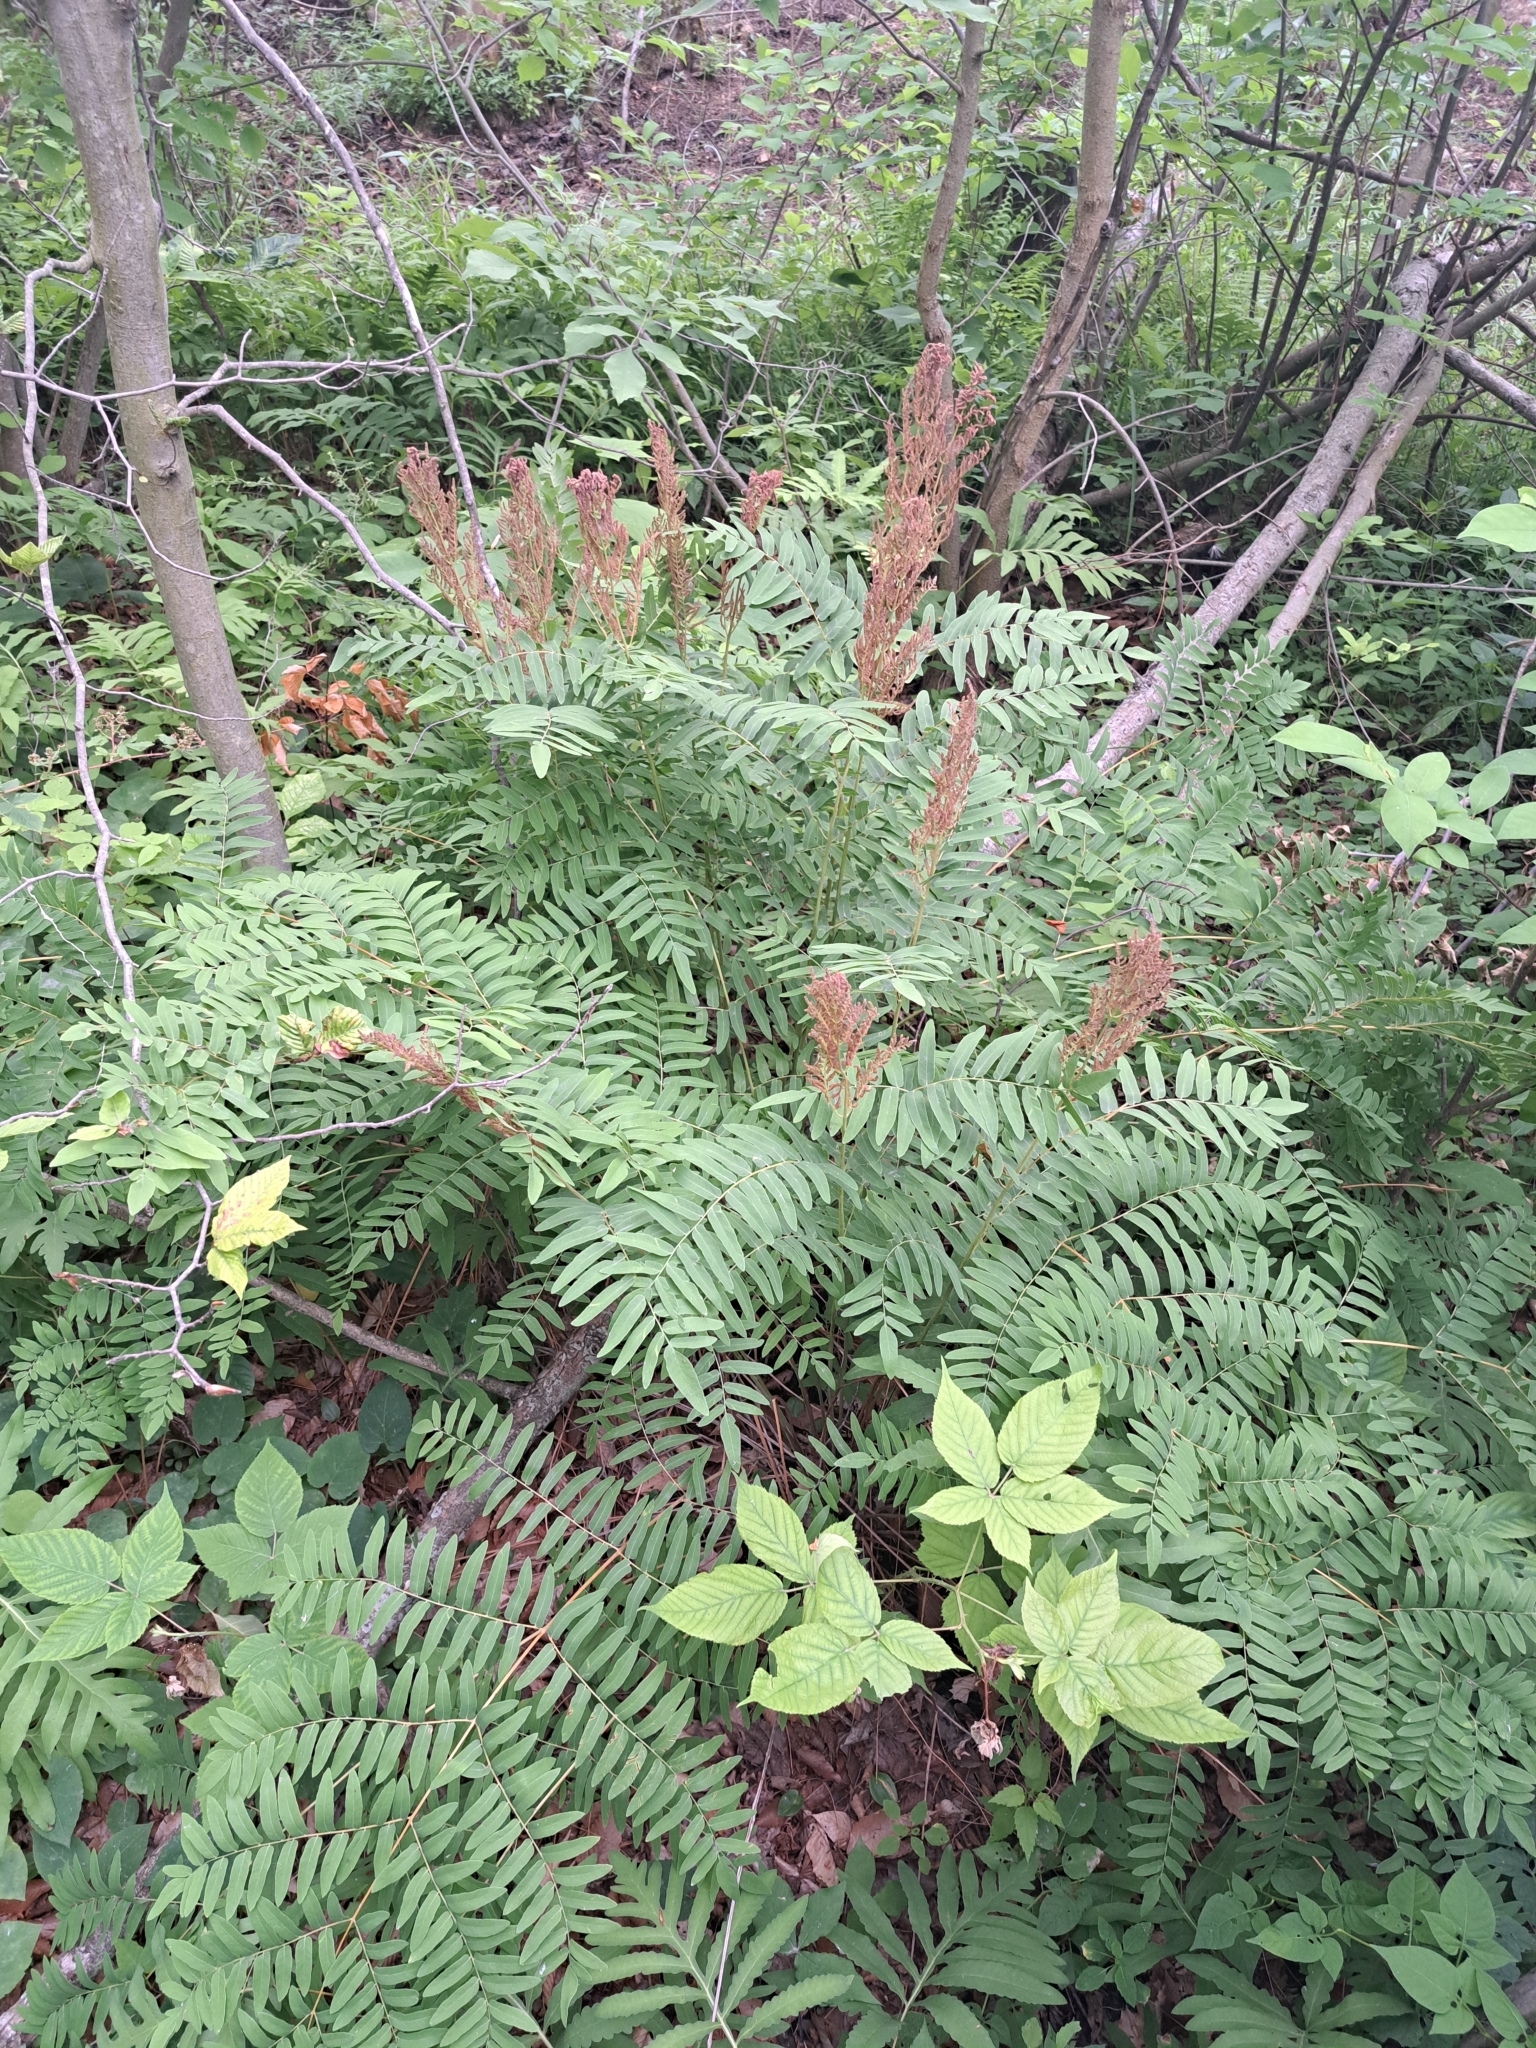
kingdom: Plantae
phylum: Tracheophyta
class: Polypodiopsida
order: Osmundales
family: Osmundaceae
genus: Osmunda
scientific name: Osmunda spectabilis
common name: American royal fern
